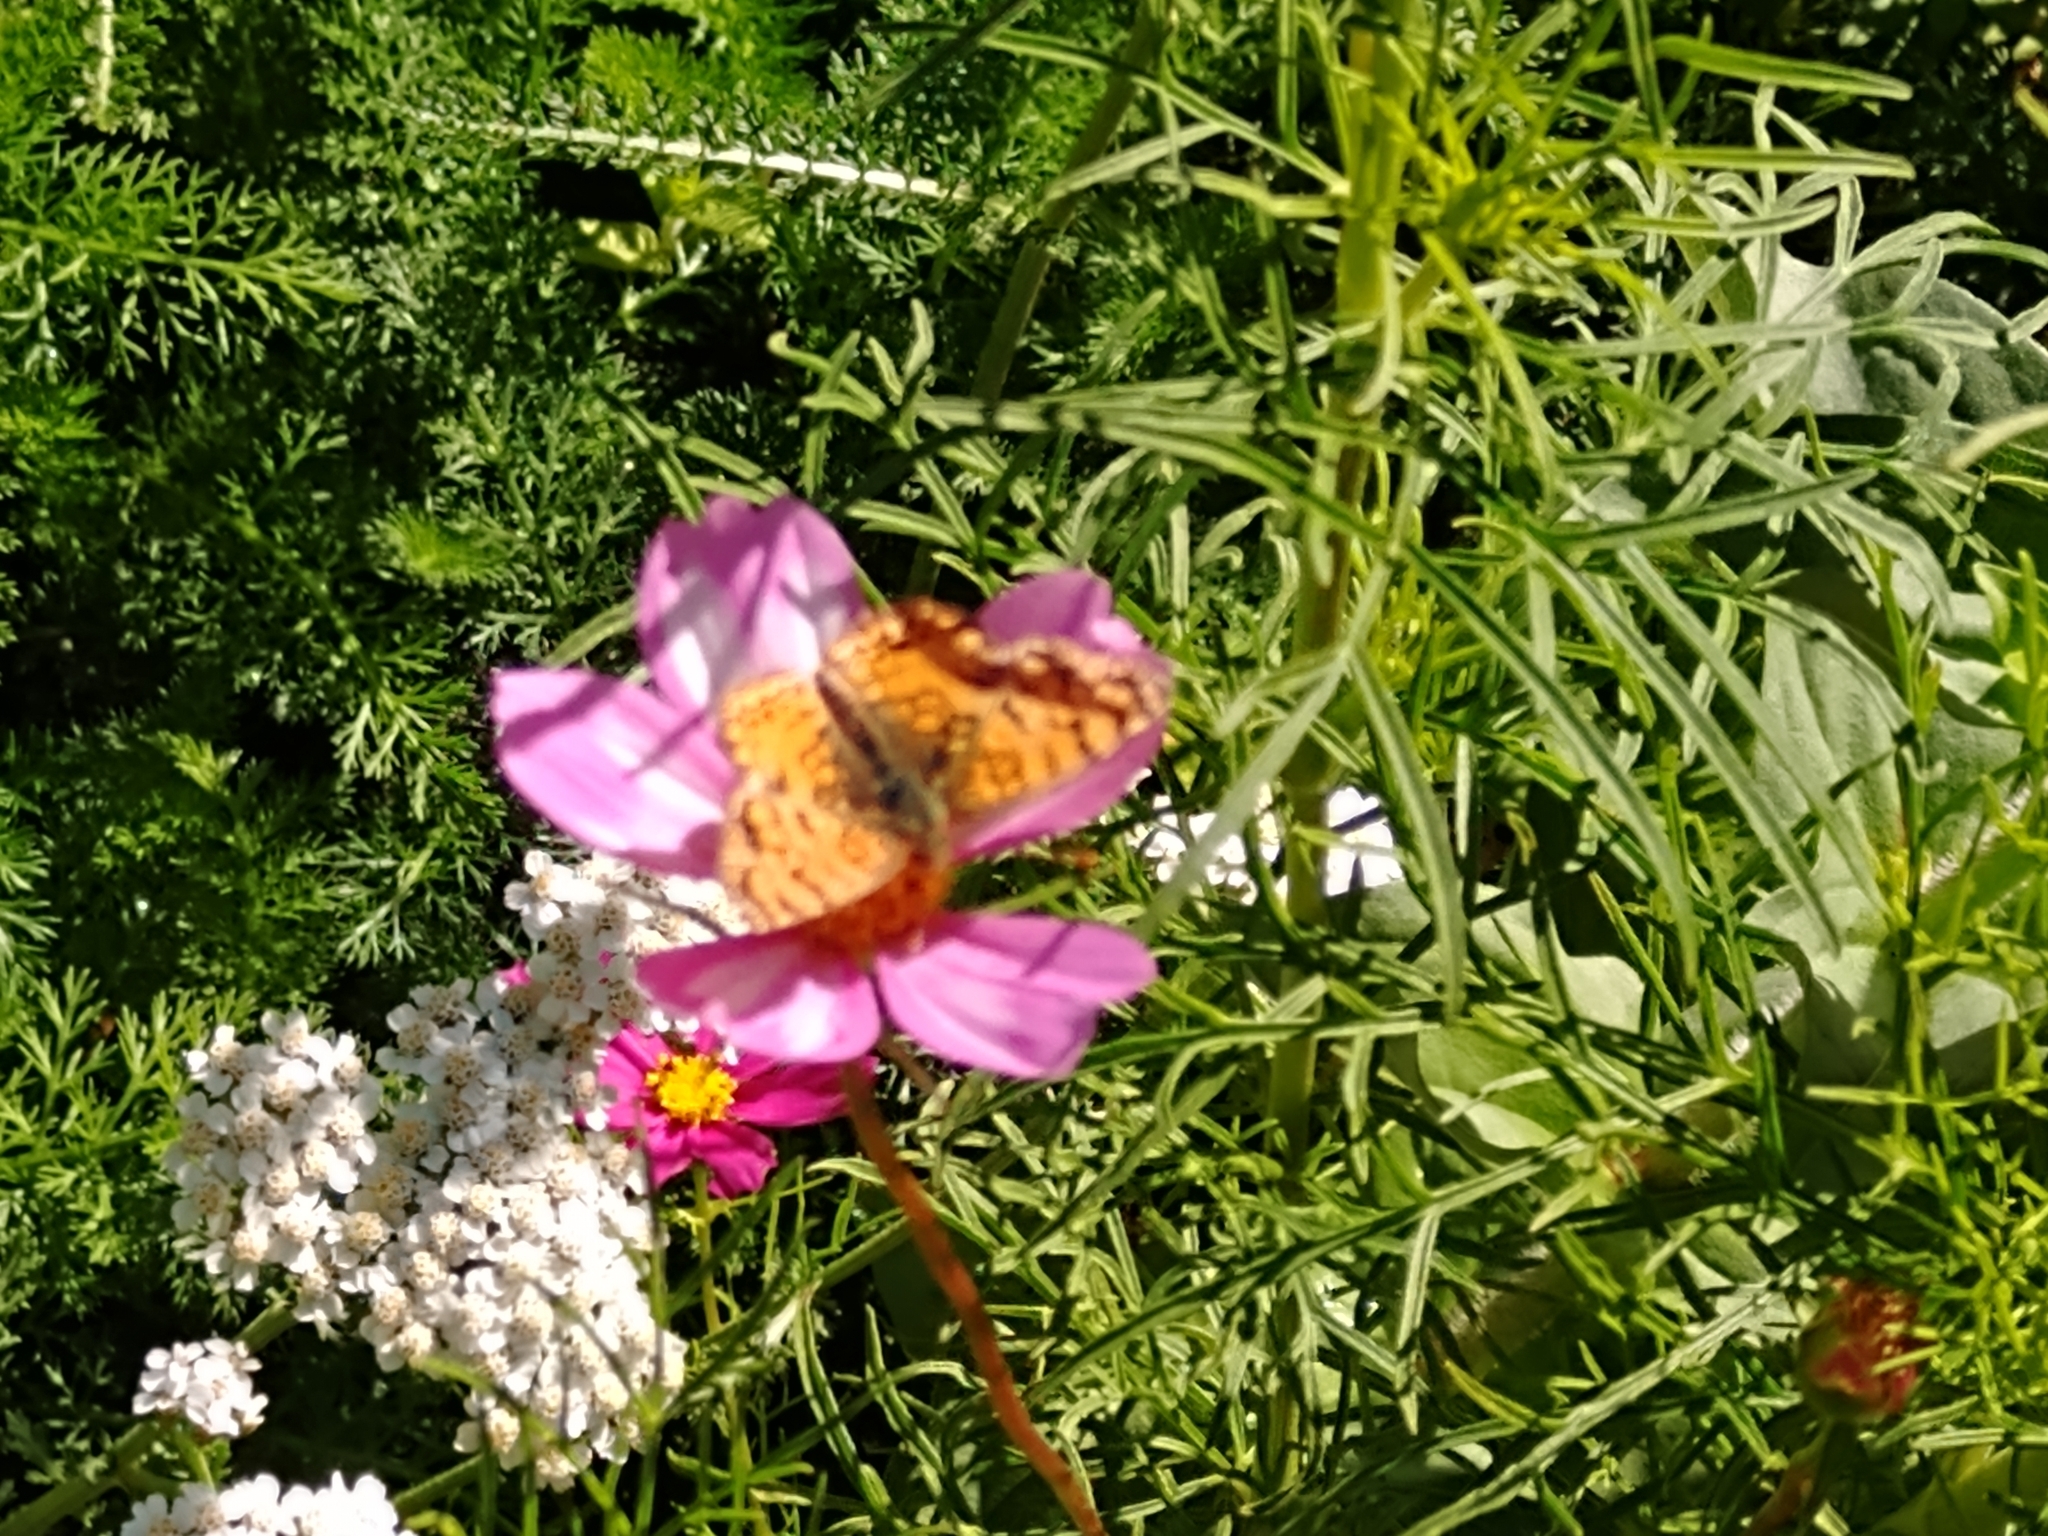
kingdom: Animalia
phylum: Arthropoda
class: Insecta
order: Lepidoptera
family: Nymphalidae
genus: Eresia
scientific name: Eresia aveyrona
